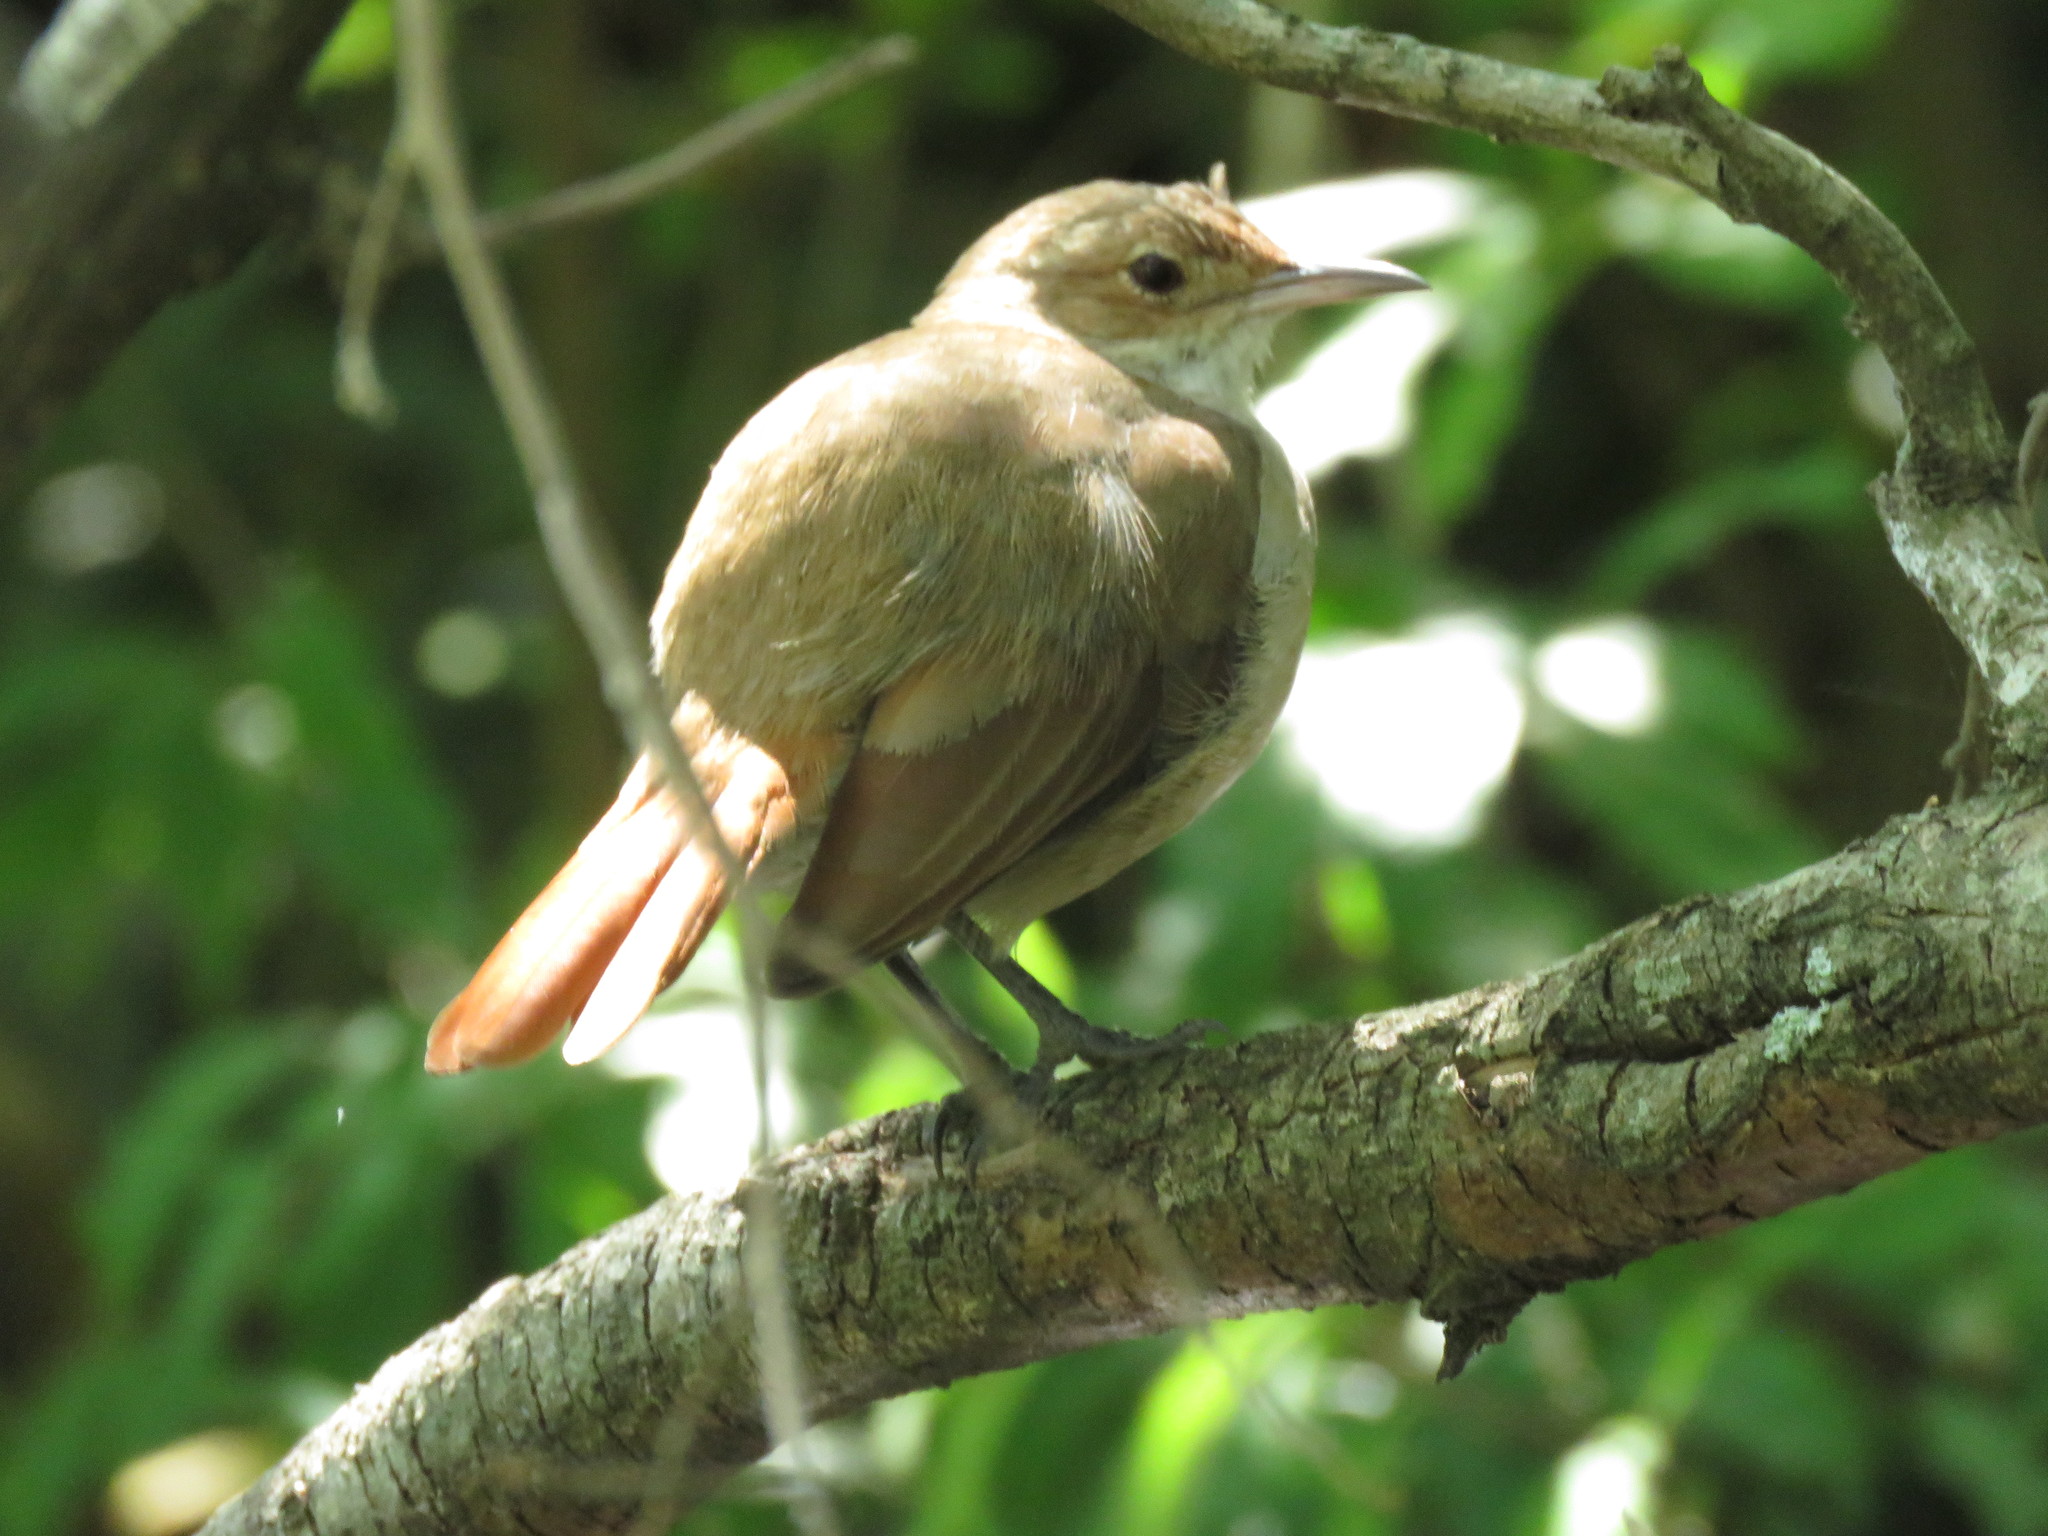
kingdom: Animalia
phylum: Chordata
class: Aves
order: Passeriformes
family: Furnariidae
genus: Furnarius
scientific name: Furnarius rufus
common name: Rufous hornero
